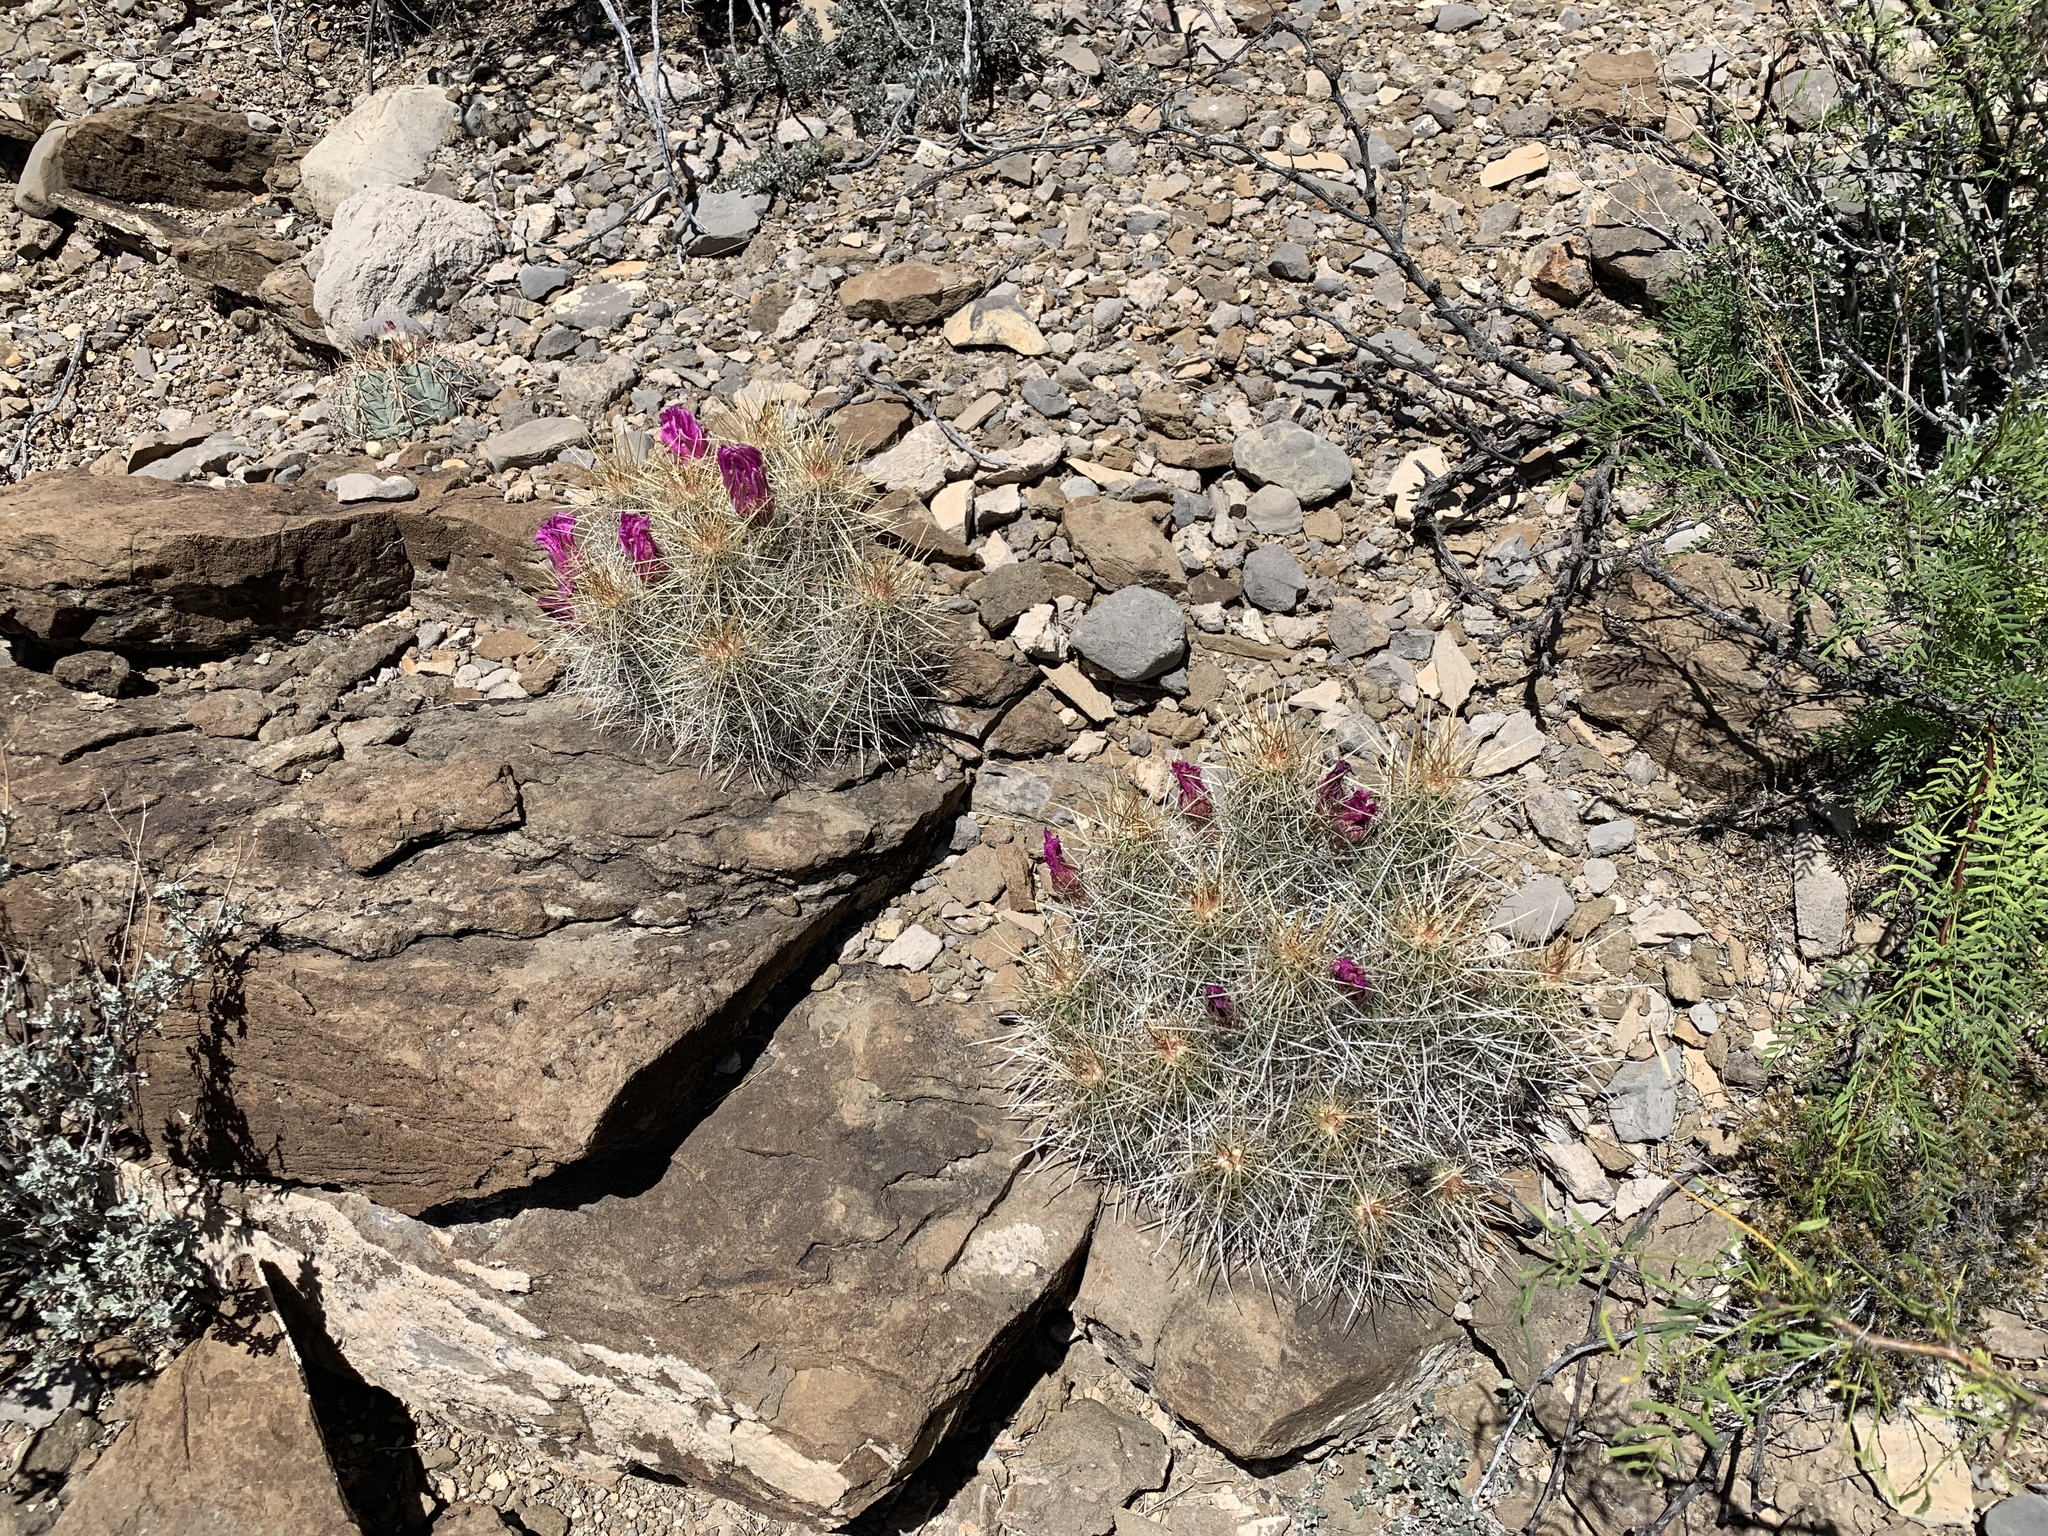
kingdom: Plantae
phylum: Tracheophyta
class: Magnoliopsida
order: Caryophyllales
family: Cactaceae
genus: Echinocereus
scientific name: Echinocereus stramineus
